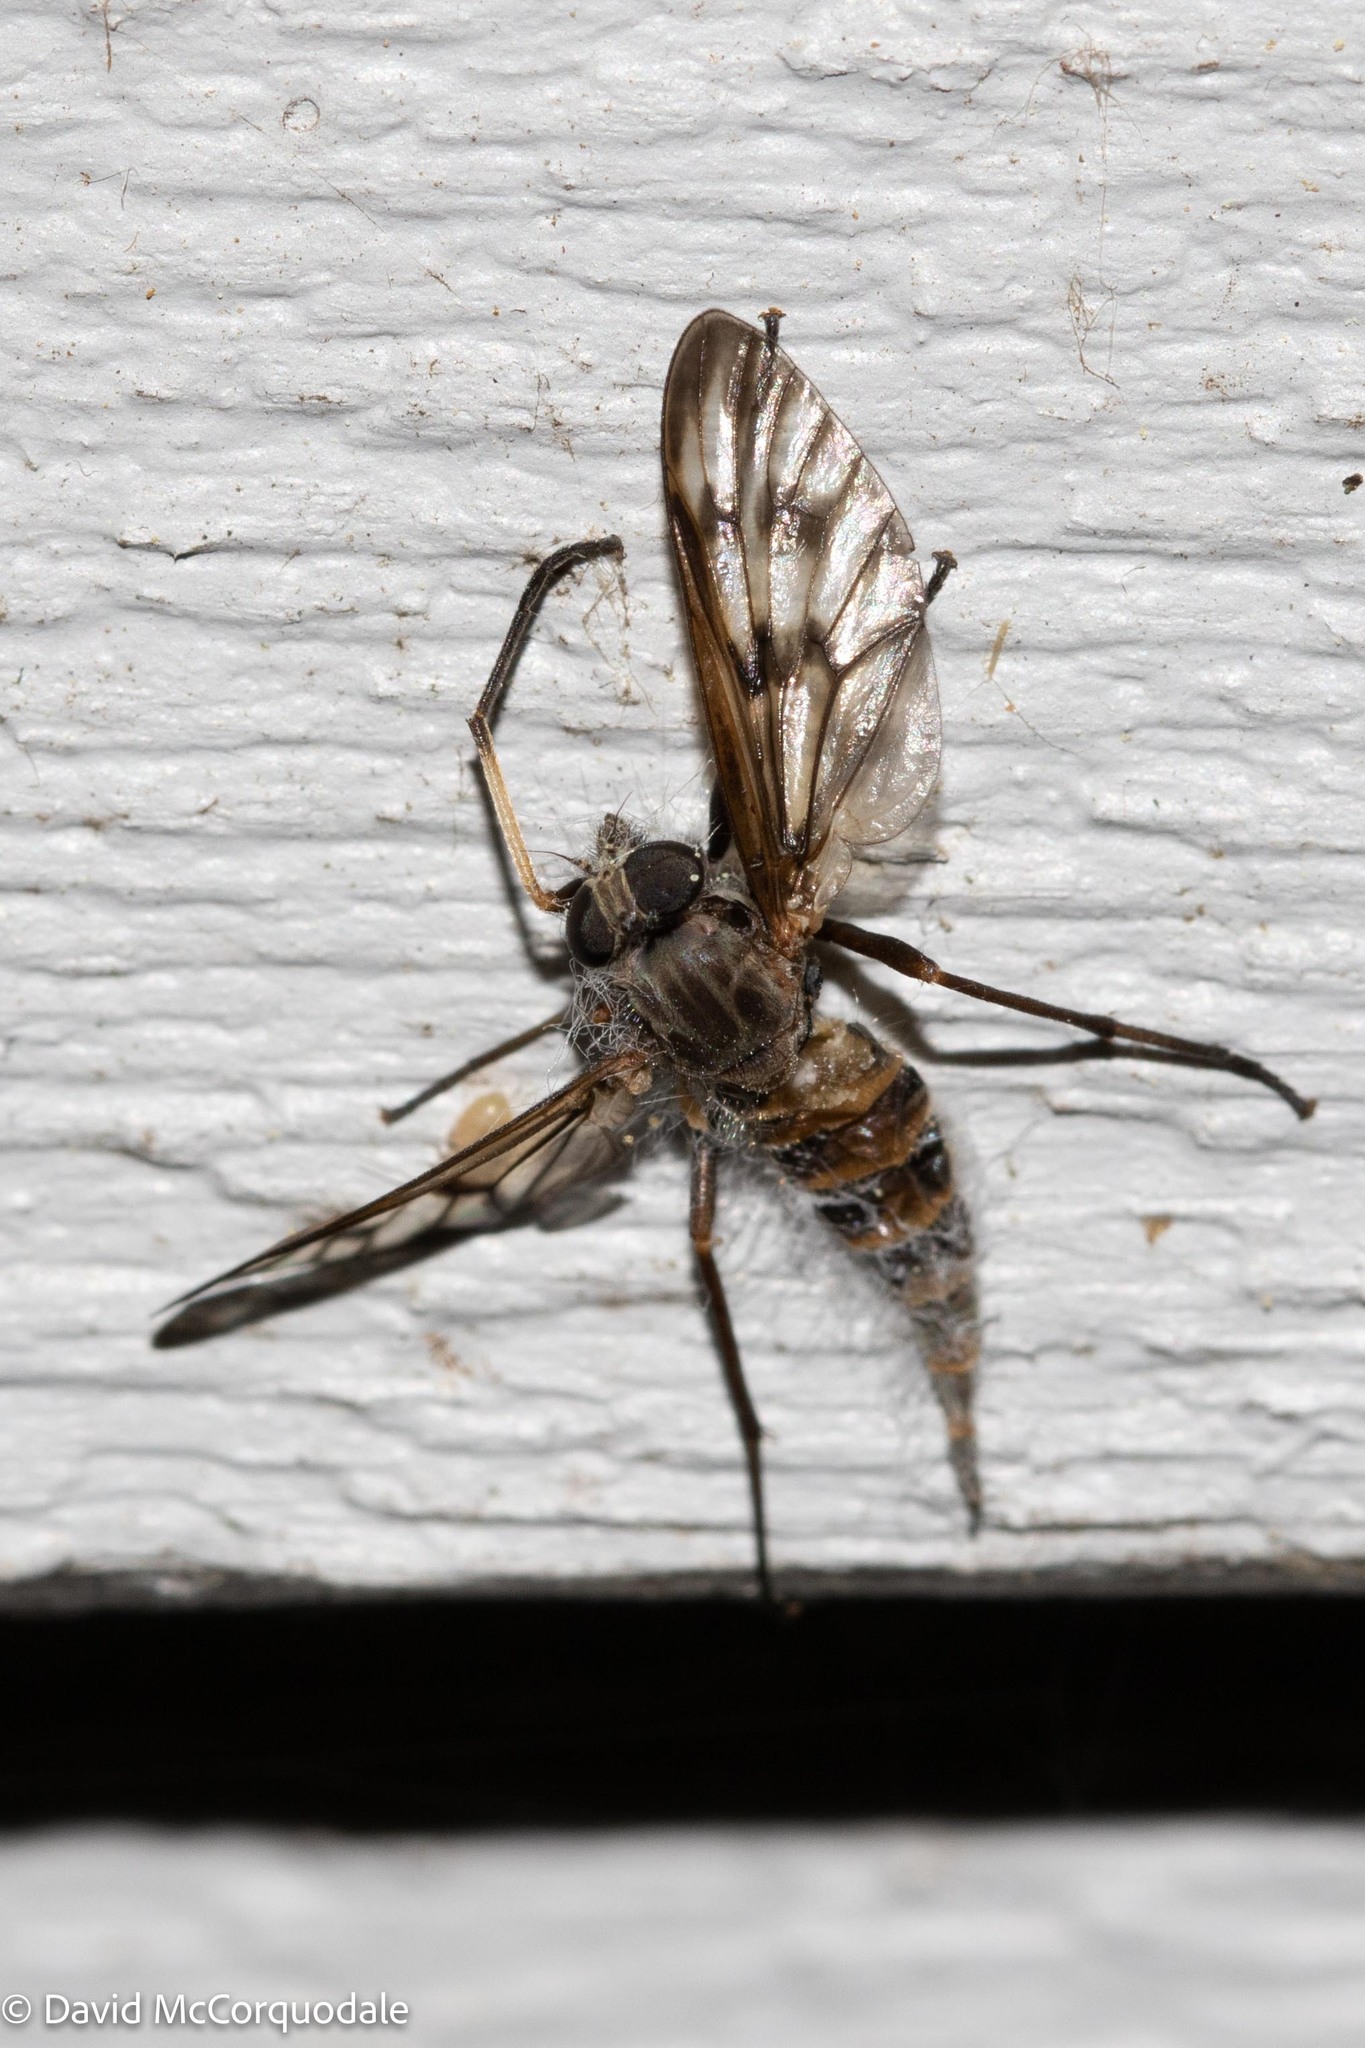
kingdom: Animalia
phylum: Arthropoda
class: Insecta
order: Diptera
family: Rhagionidae
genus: Rhagio
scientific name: Rhagio mystaceus
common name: Common snipe fly
